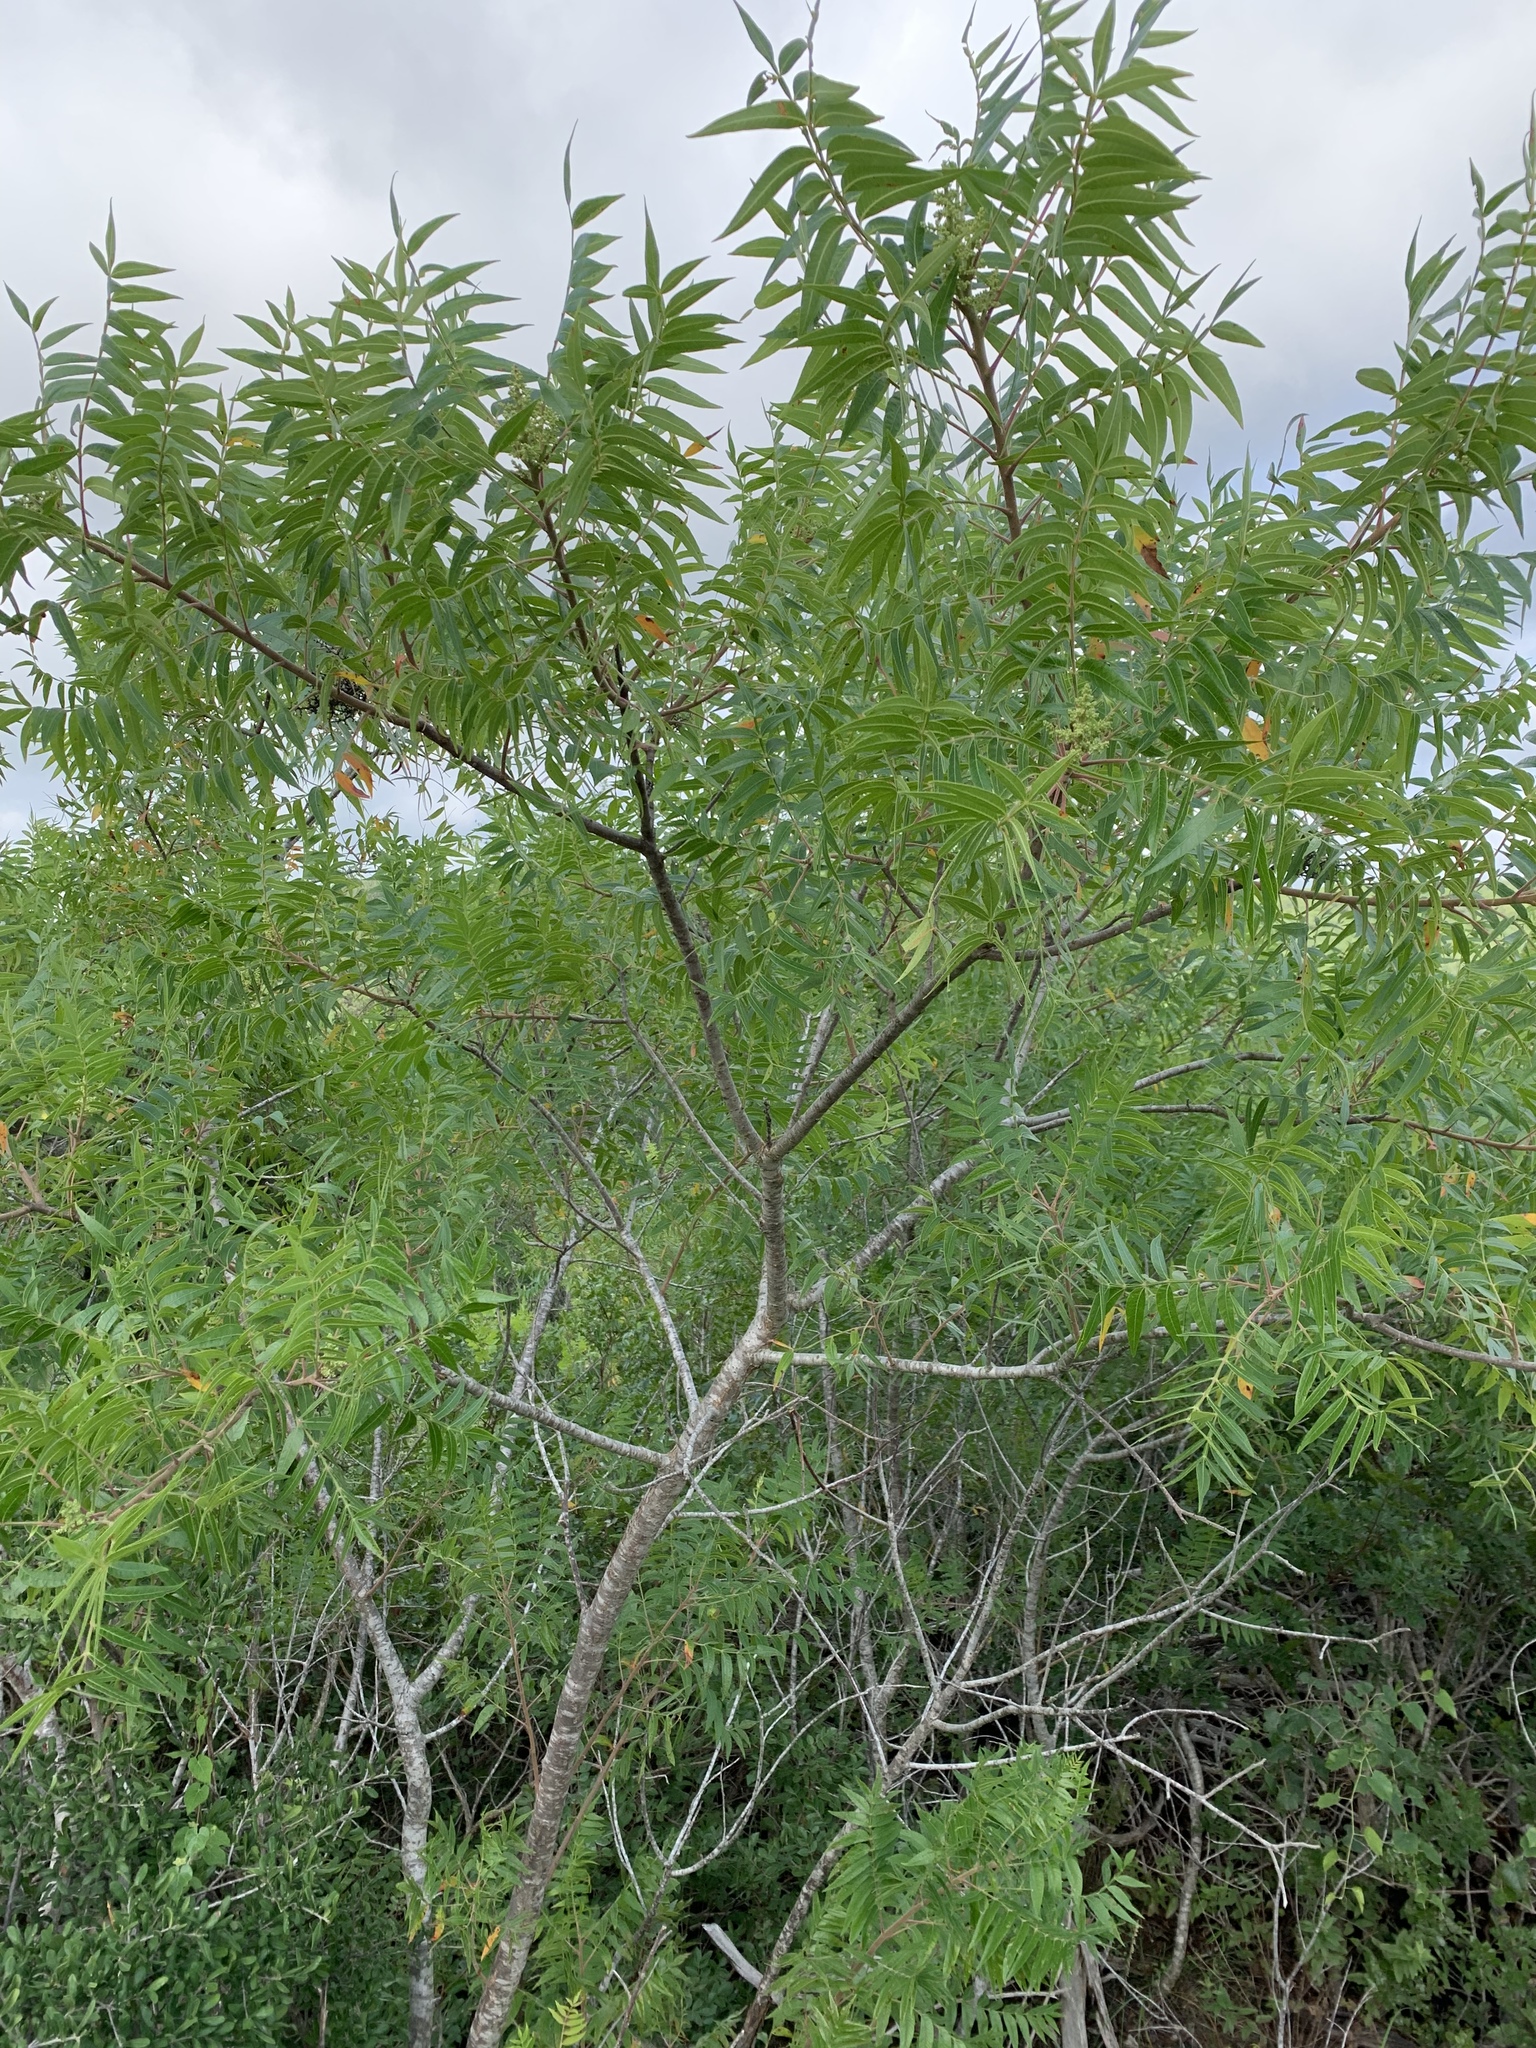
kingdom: Plantae
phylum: Tracheophyta
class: Magnoliopsida
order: Sapindales
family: Anacardiaceae
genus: Rhus
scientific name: Rhus lanceolata
